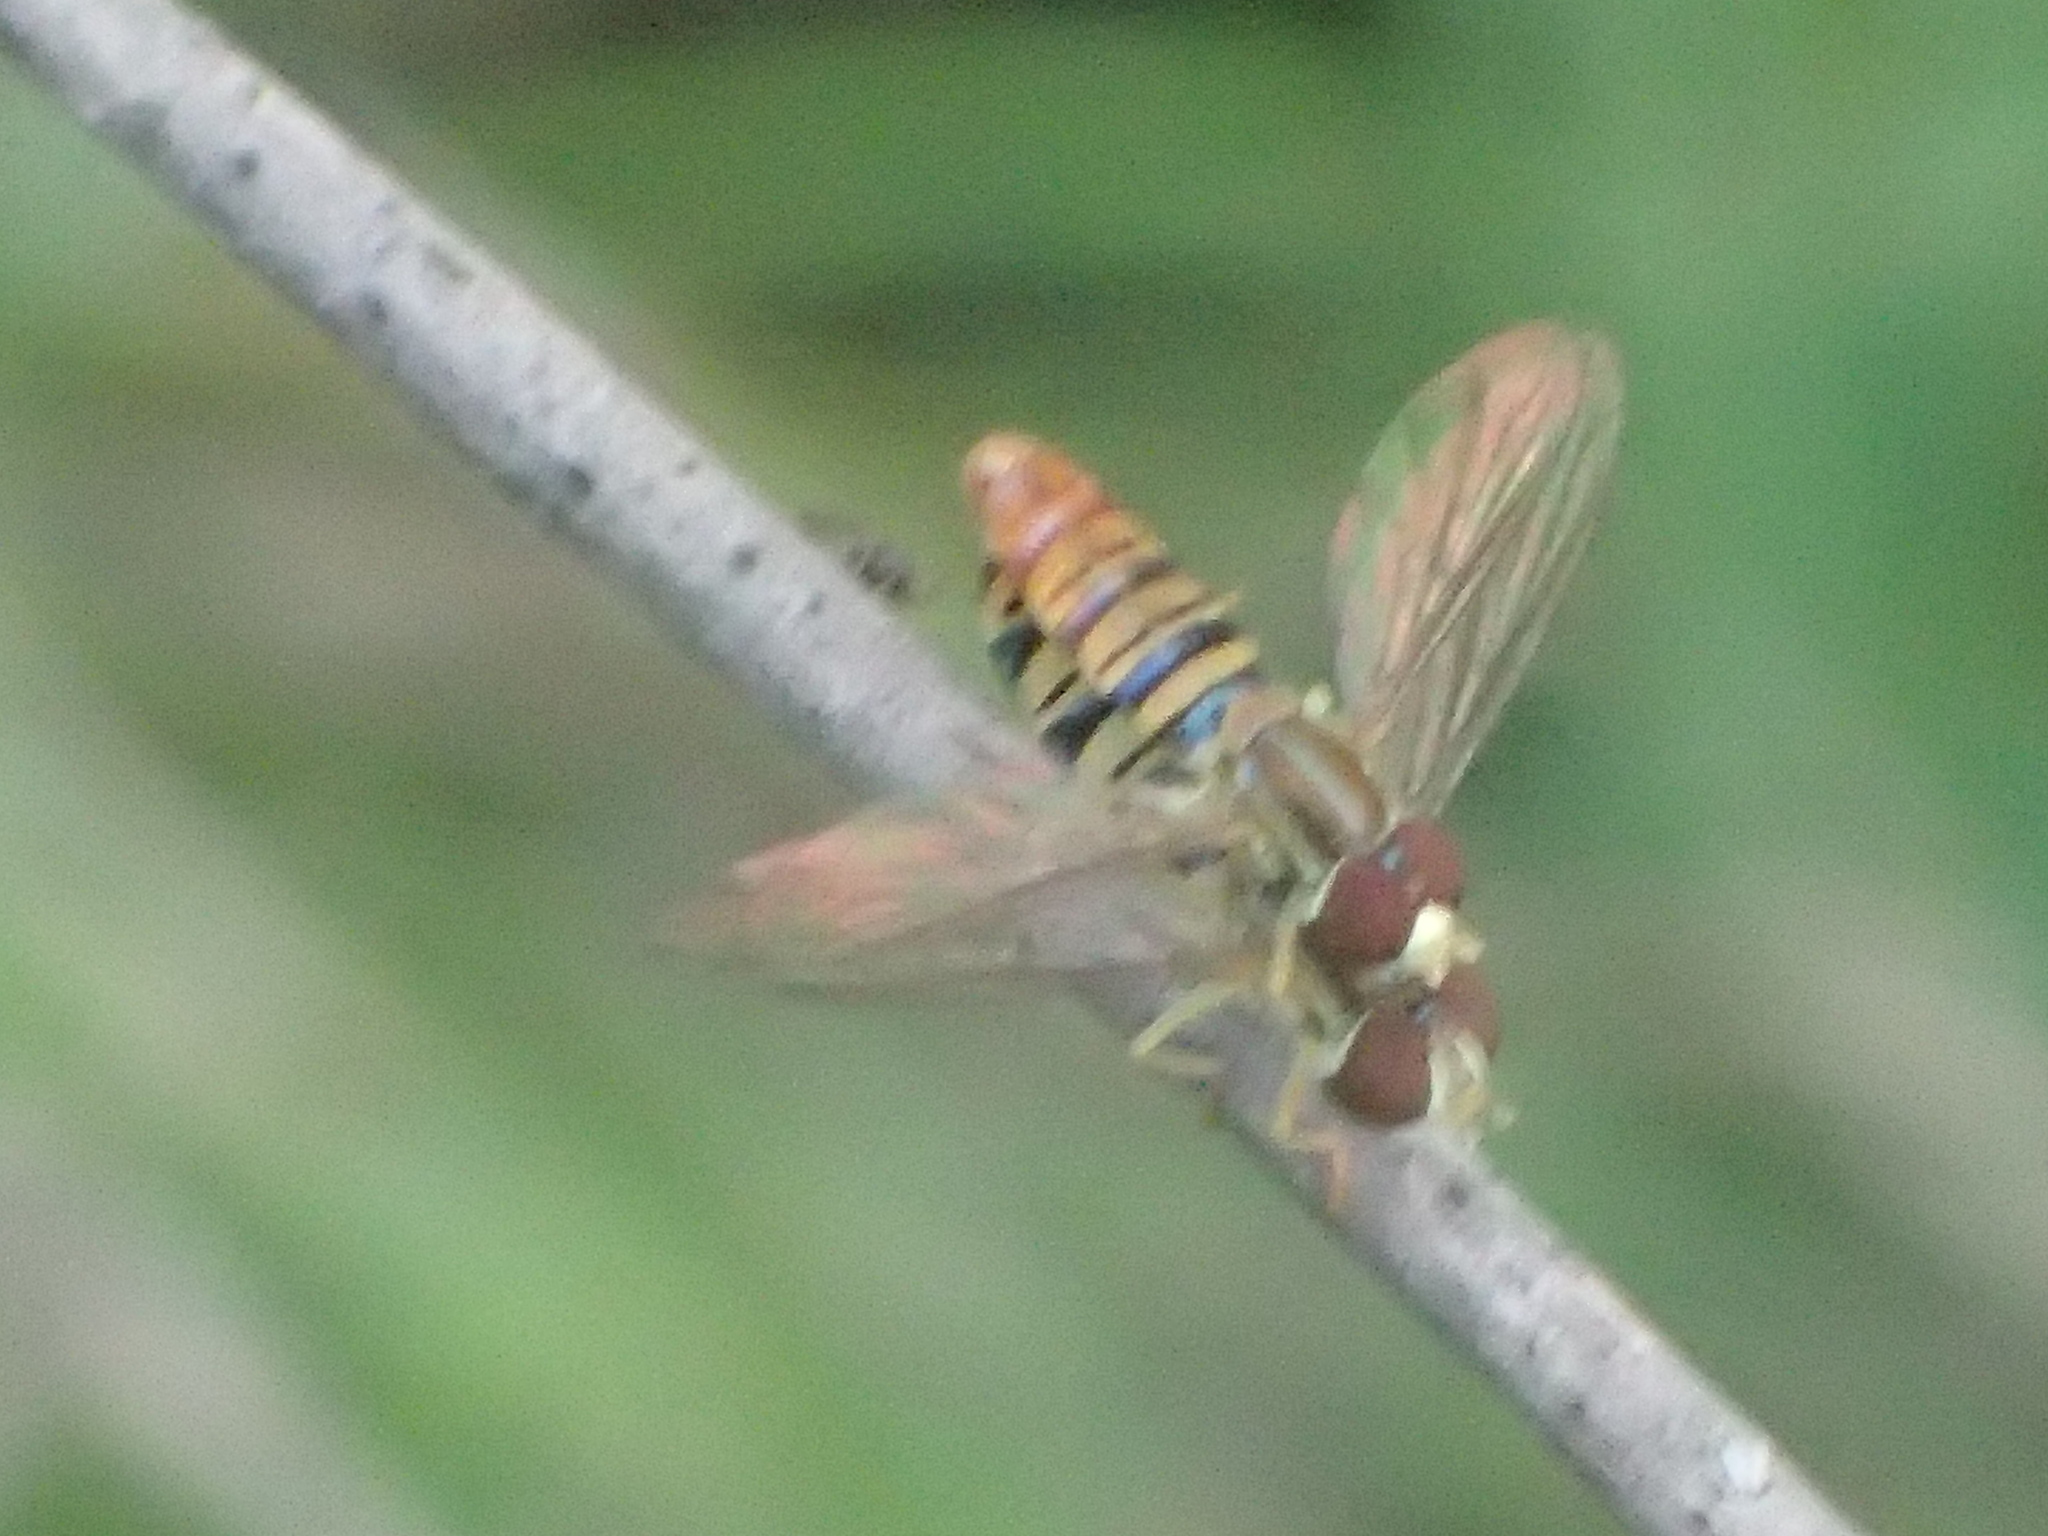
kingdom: Animalia
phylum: Arthropoda
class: Insecta
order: Diptera
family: Syrphidae
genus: Toxomerus
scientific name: Toxomerus politus
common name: Maize calligrapher
